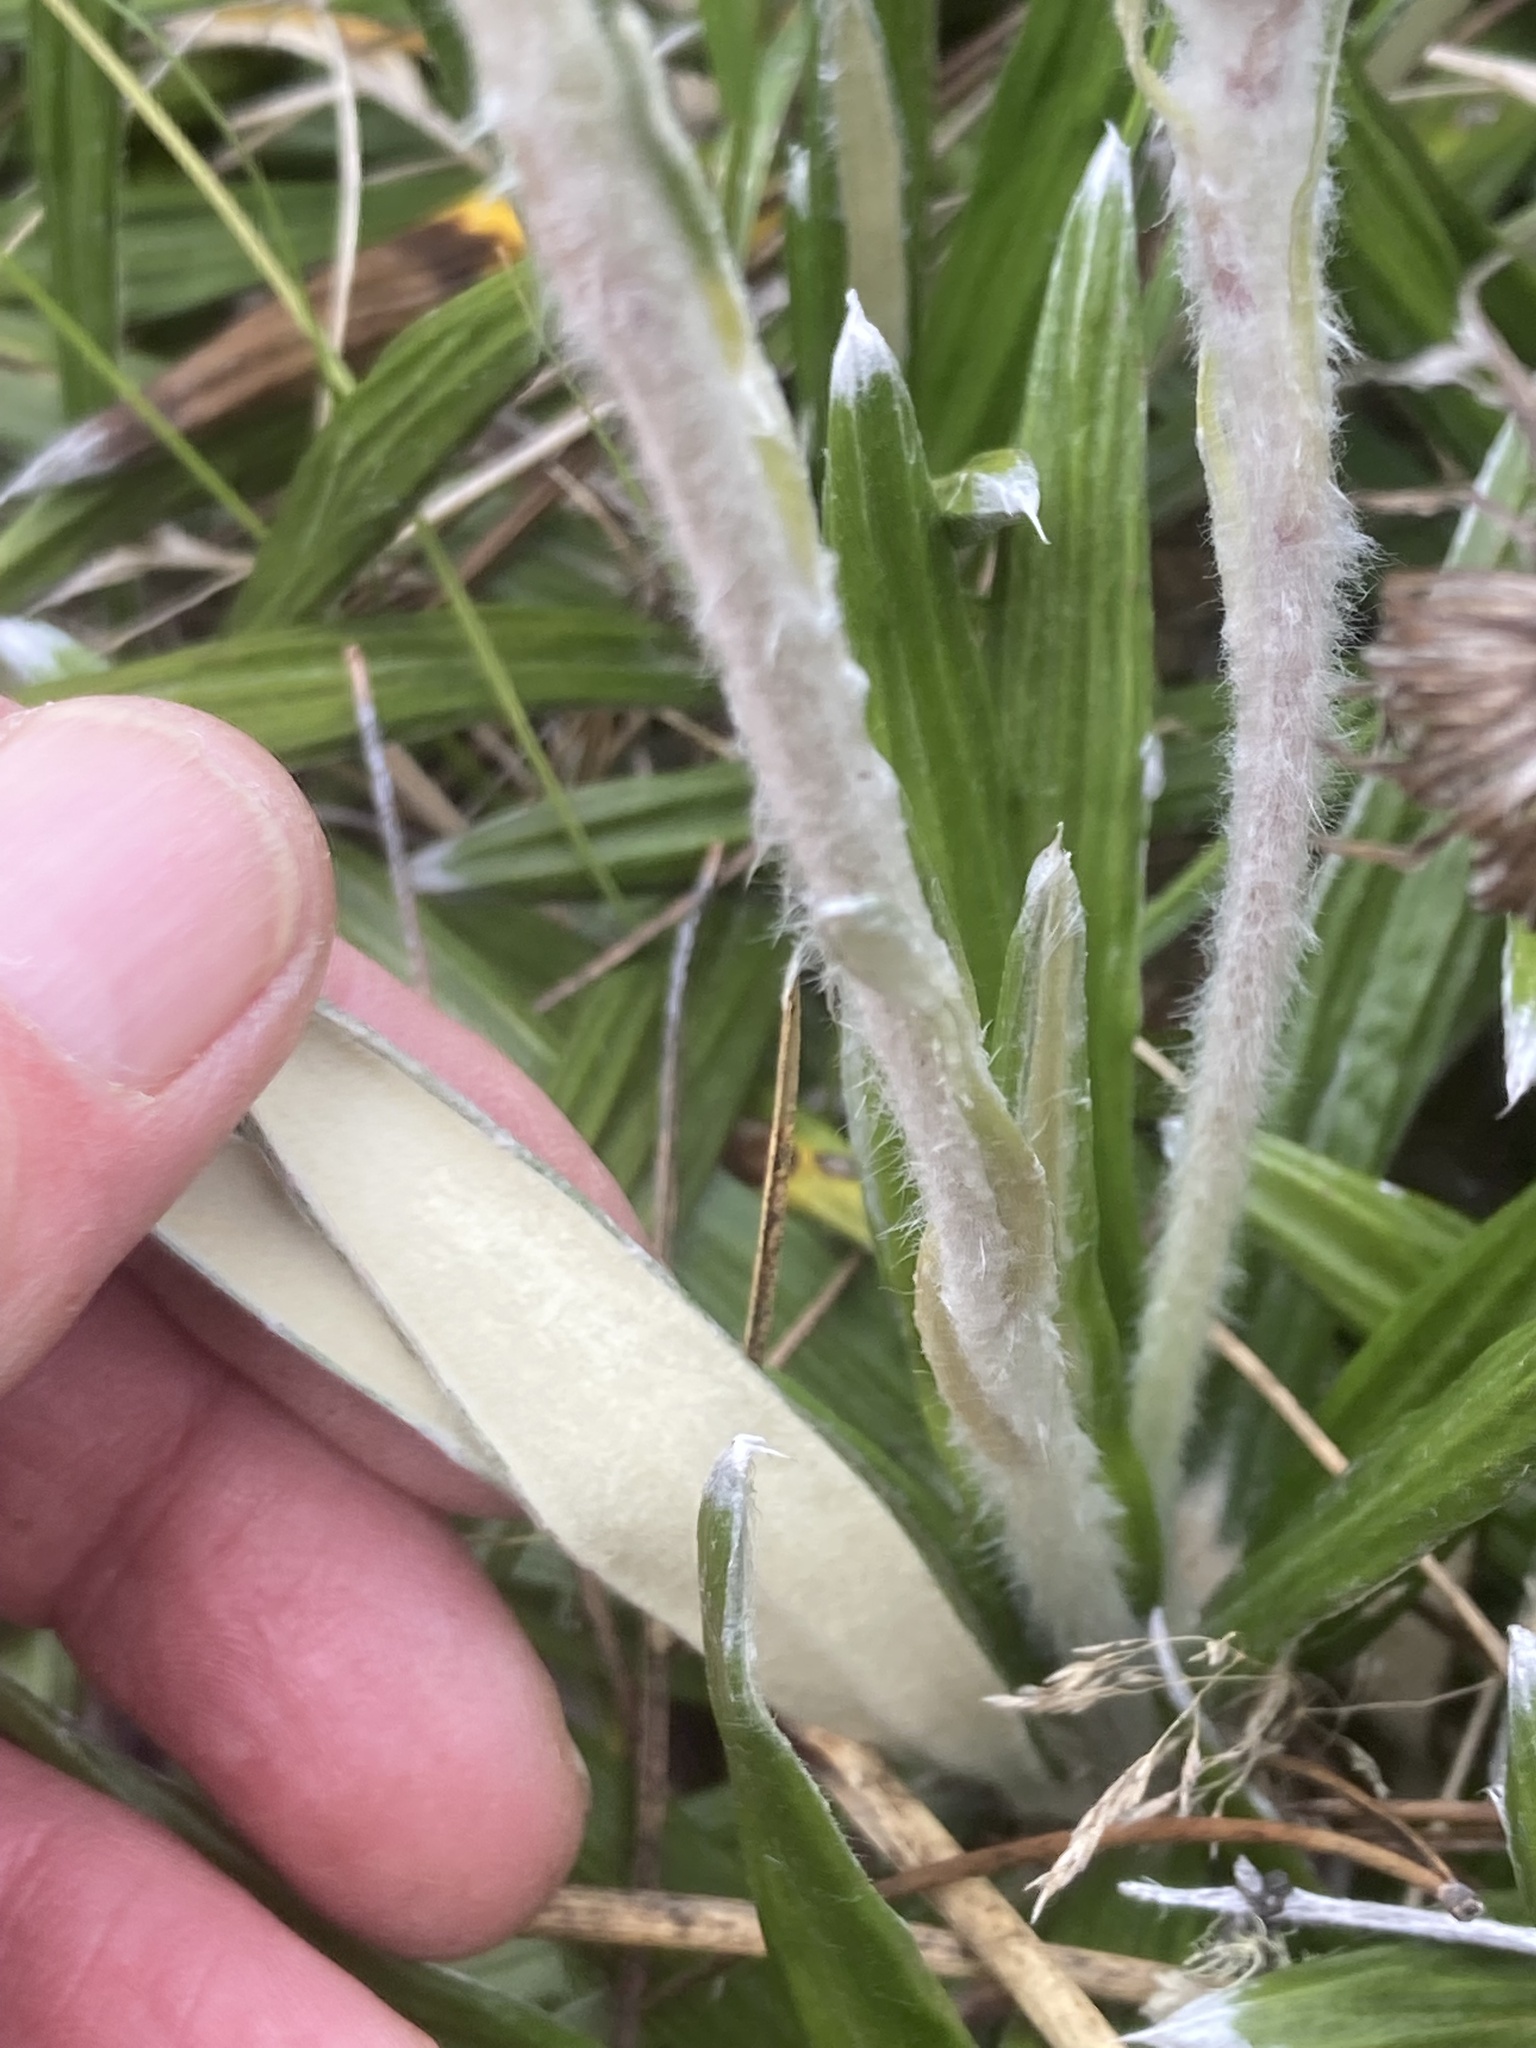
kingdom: Plantae
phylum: Tracheophyta
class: Magnoliopsida
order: Asterales
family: Asteraceae
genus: Celmisia
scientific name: Celmisia spectabilis
